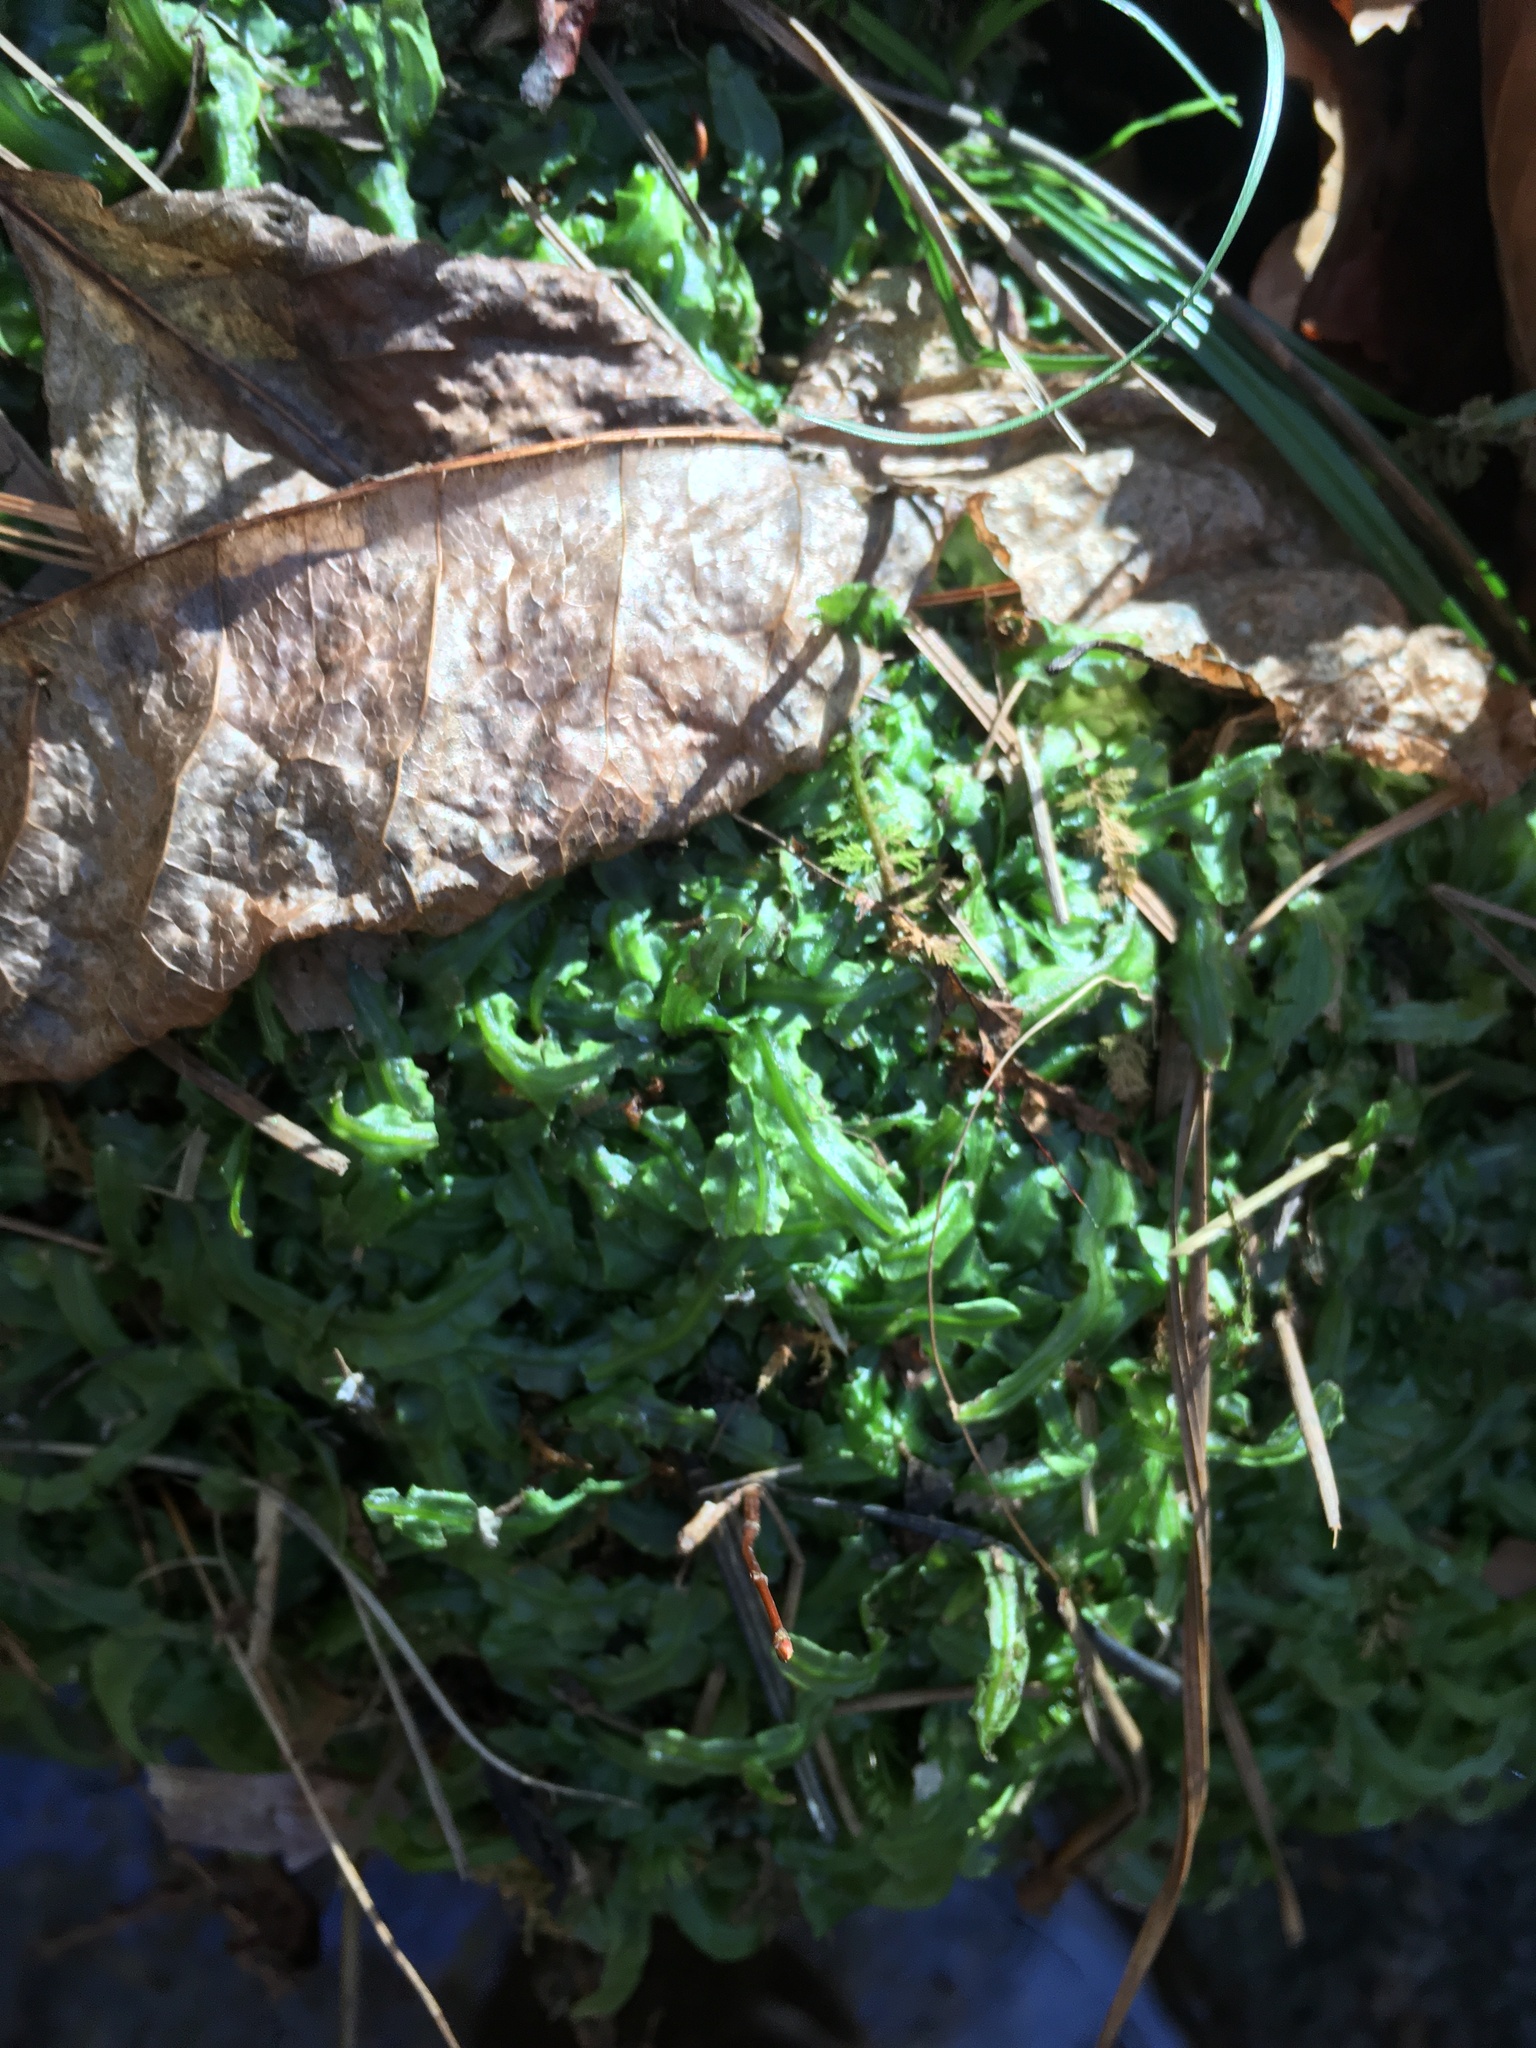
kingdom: Plantae
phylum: Marchantiophyta
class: Jungermanniopsida
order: Pallaviciniales
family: Pallaviciniaceae
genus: Pallavicinia
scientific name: Pallavicinia lyellii
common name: Veilwort
